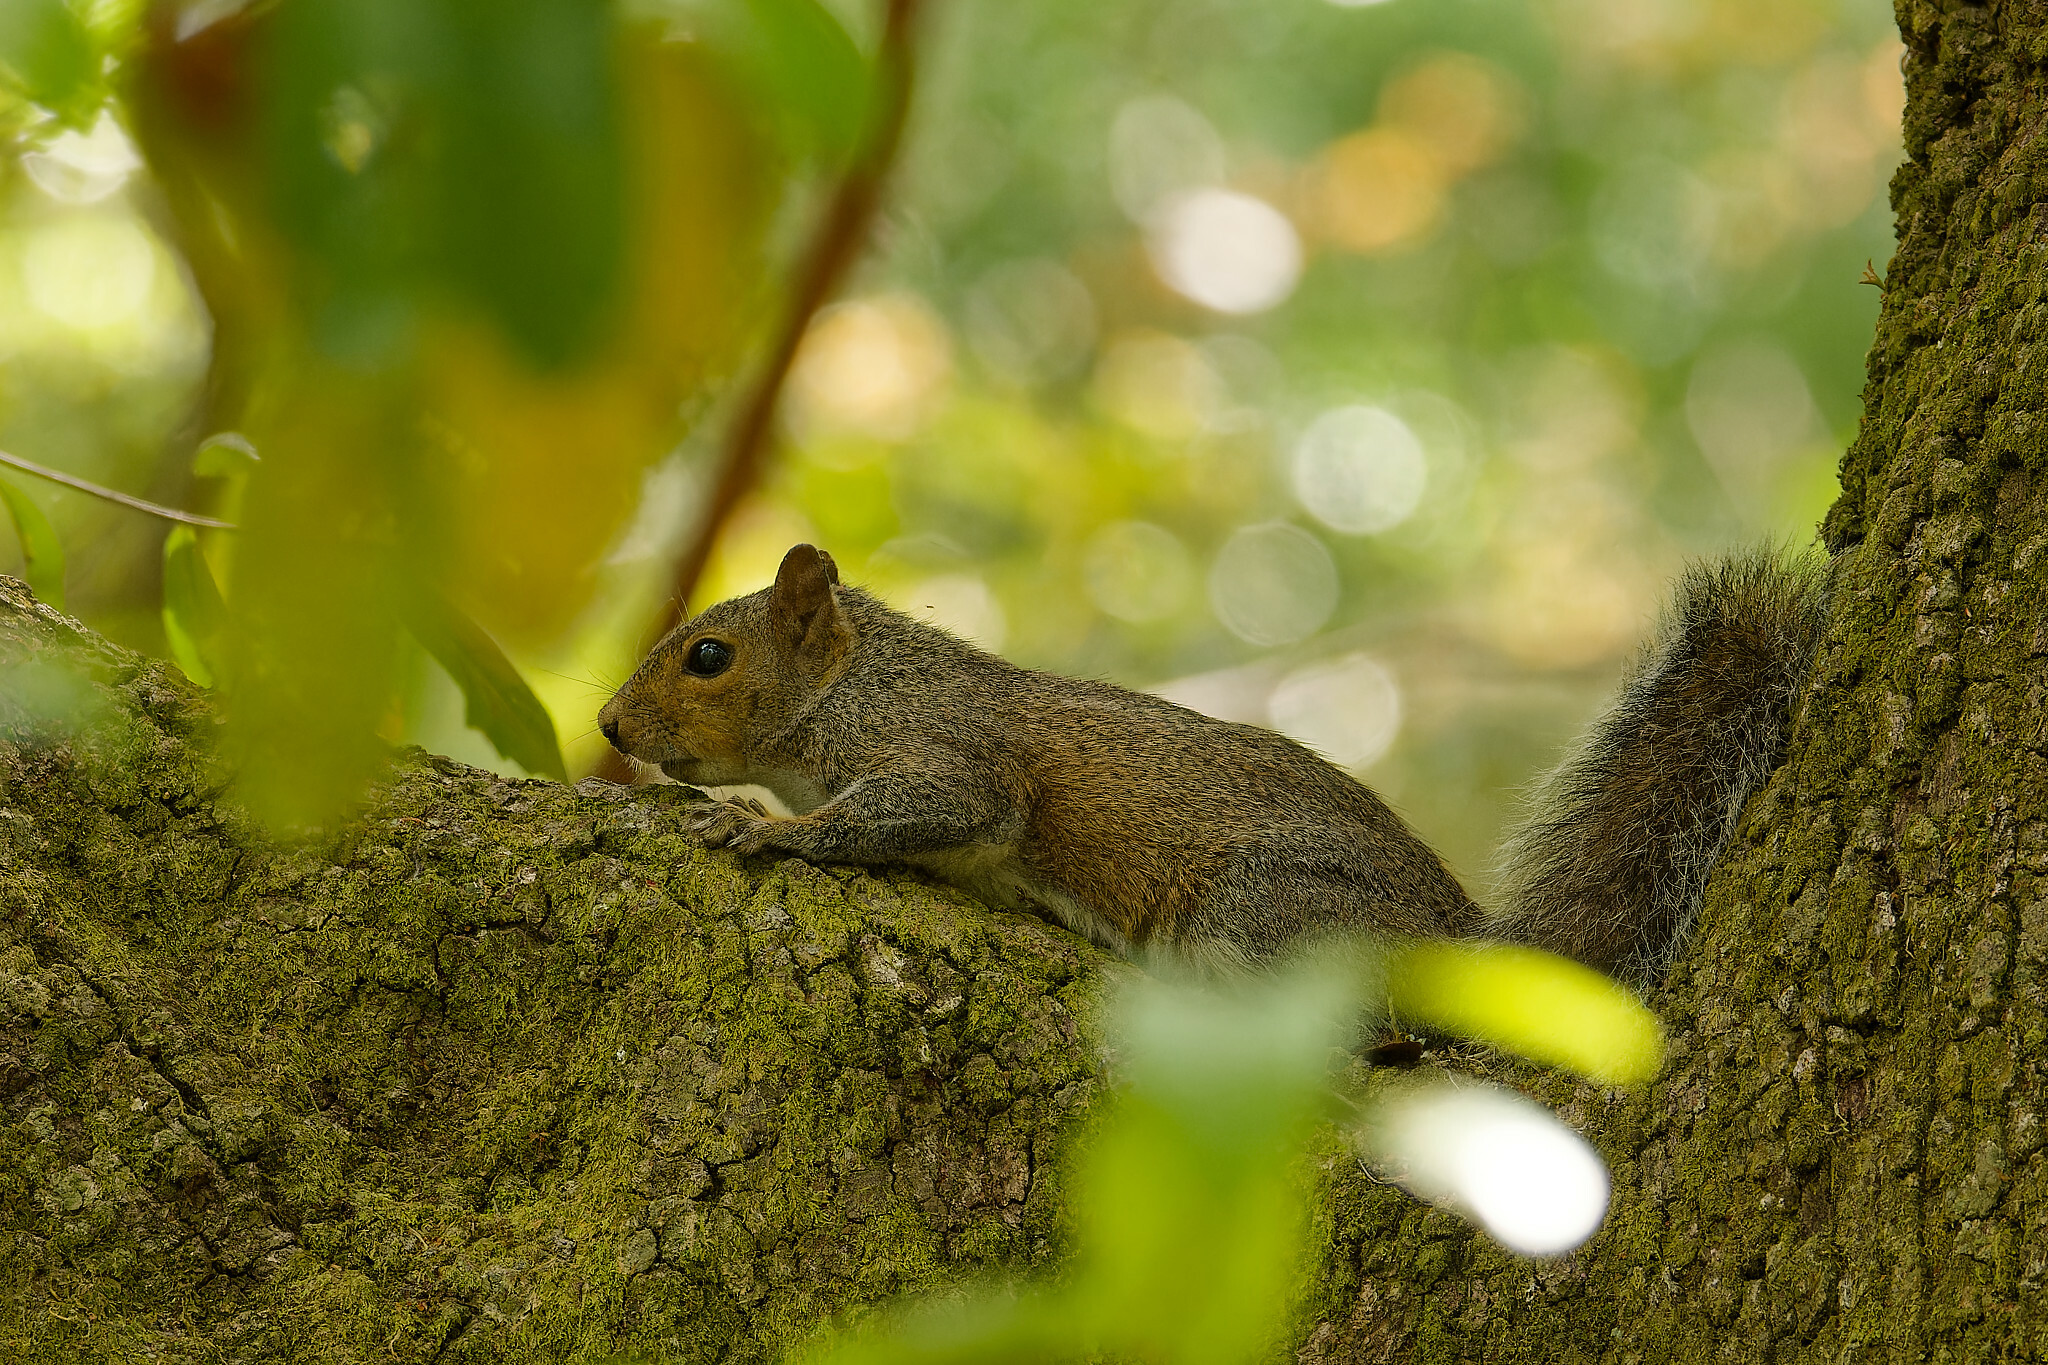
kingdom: Animalia
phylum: Chordata
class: Mammalia
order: Rodentia
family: Sciuridae
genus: Sciurus
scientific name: Sciurus carolinensis
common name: Eastern gray squirrel
